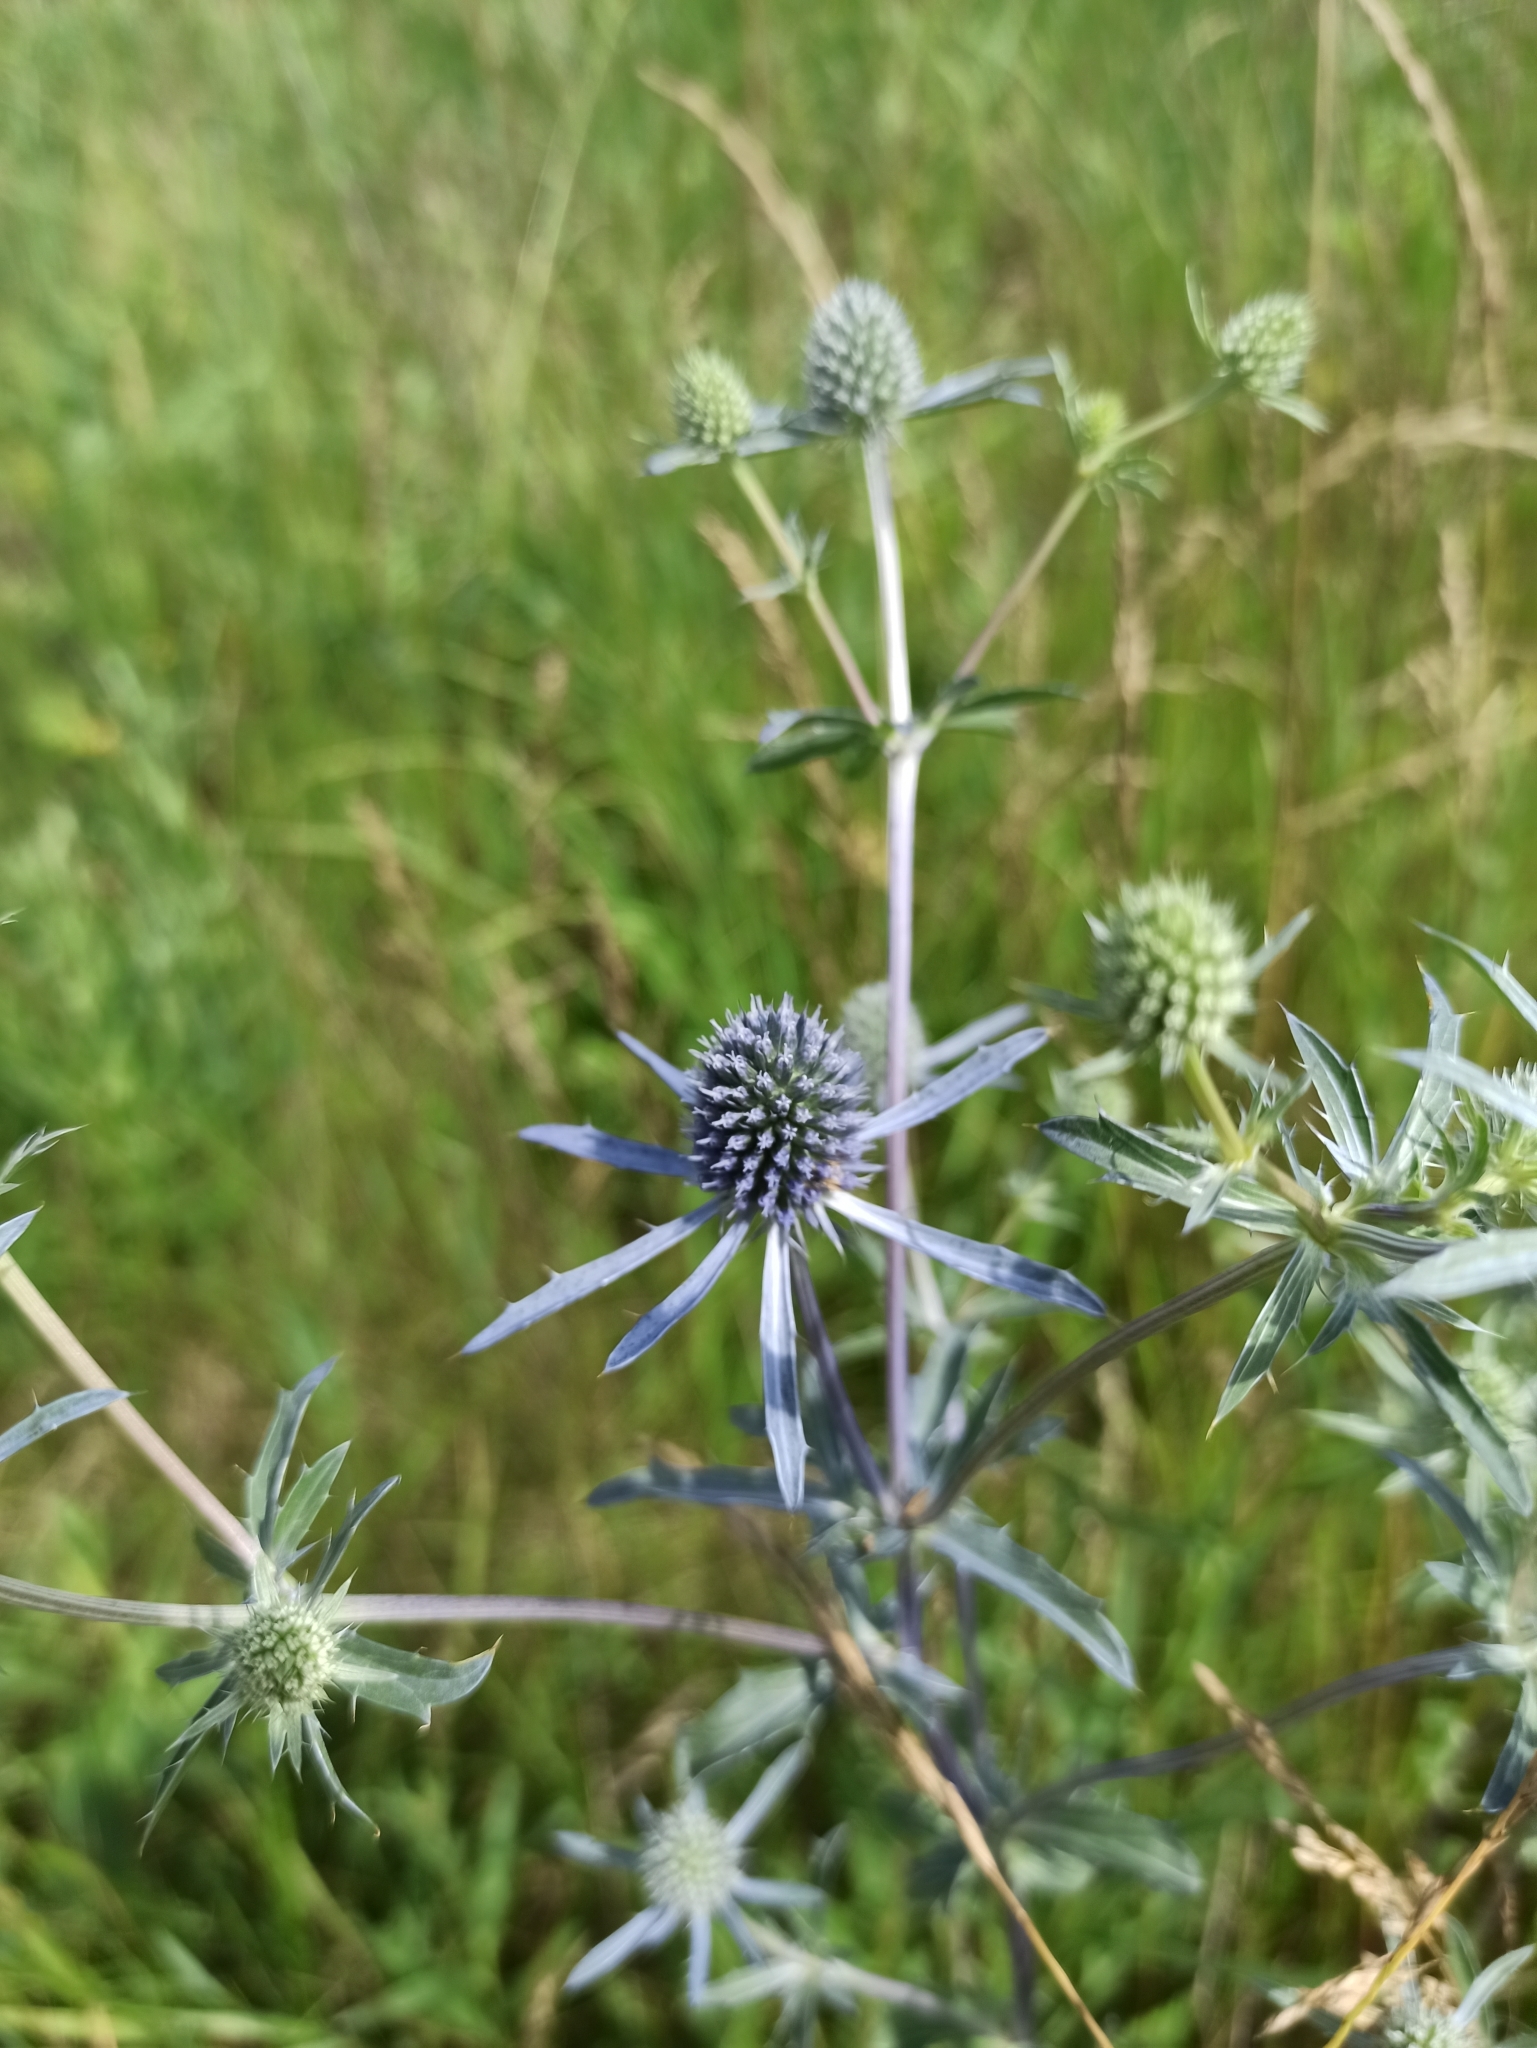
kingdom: Plantae
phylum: Tracheophyta
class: Magnoliopsida
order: Apiales
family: Apiaceae
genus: Eryngium
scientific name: Eryngium planum
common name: Blue eryngo
